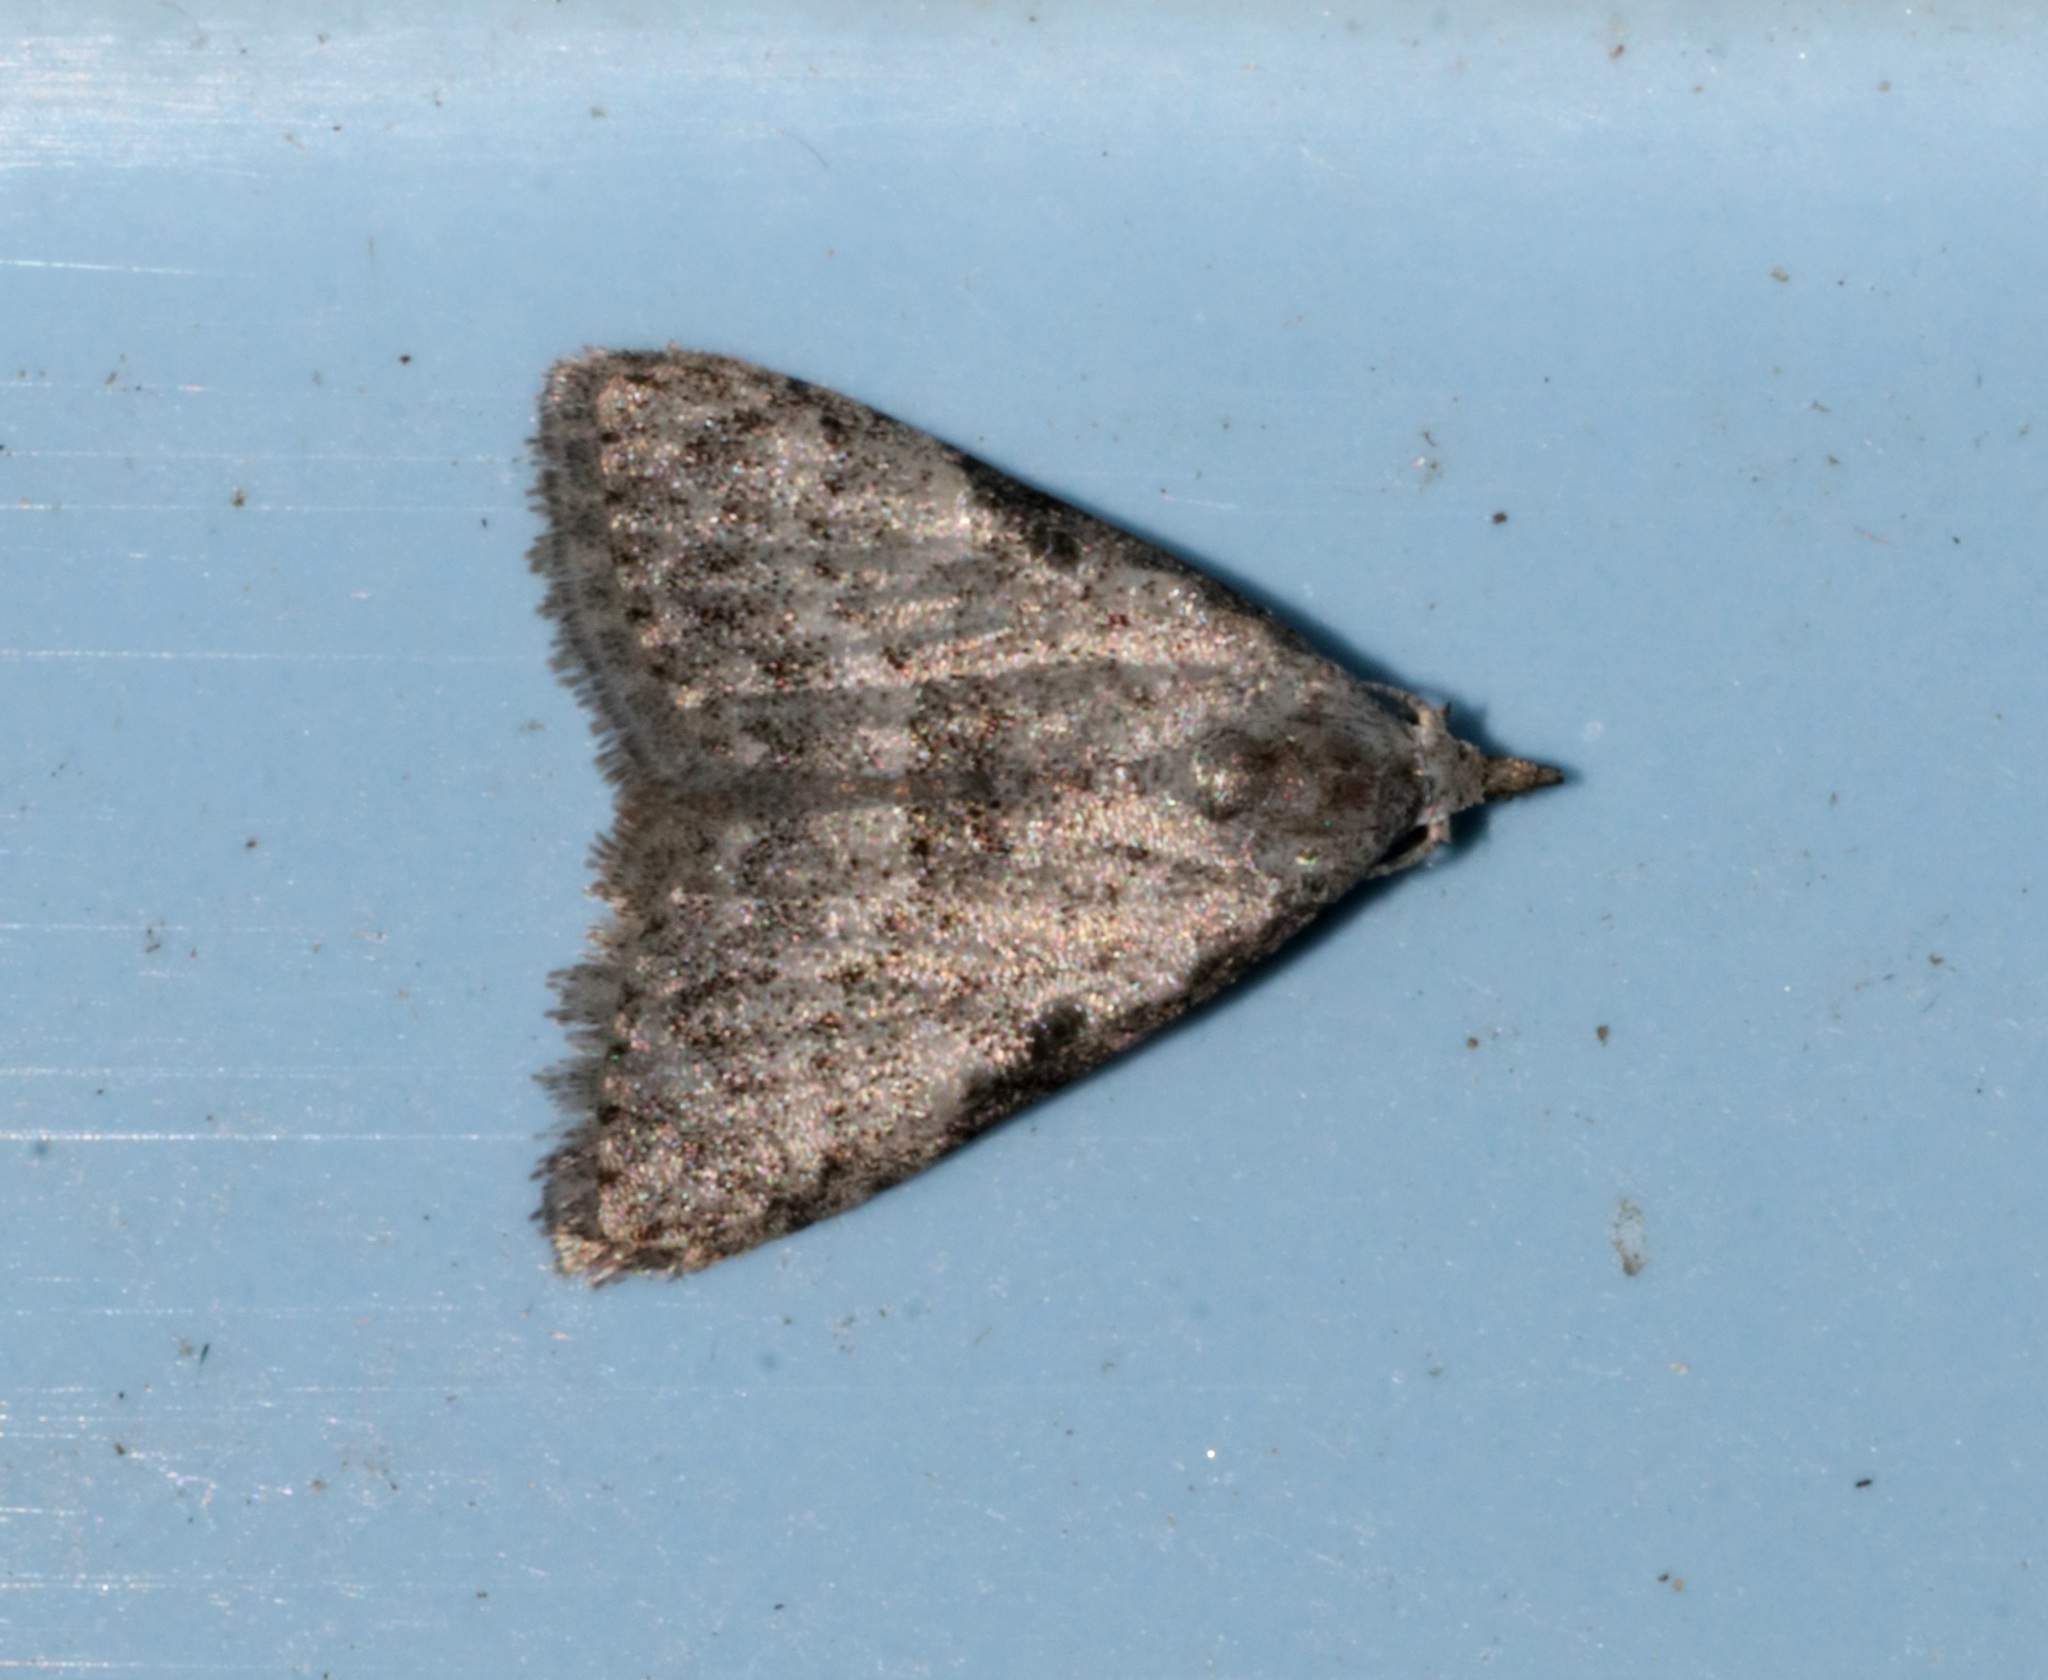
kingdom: Animalia
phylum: Arthropoda
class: Insecta
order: Lepidoptera
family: Nolidae
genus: Spininola
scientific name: Spininola nepali
